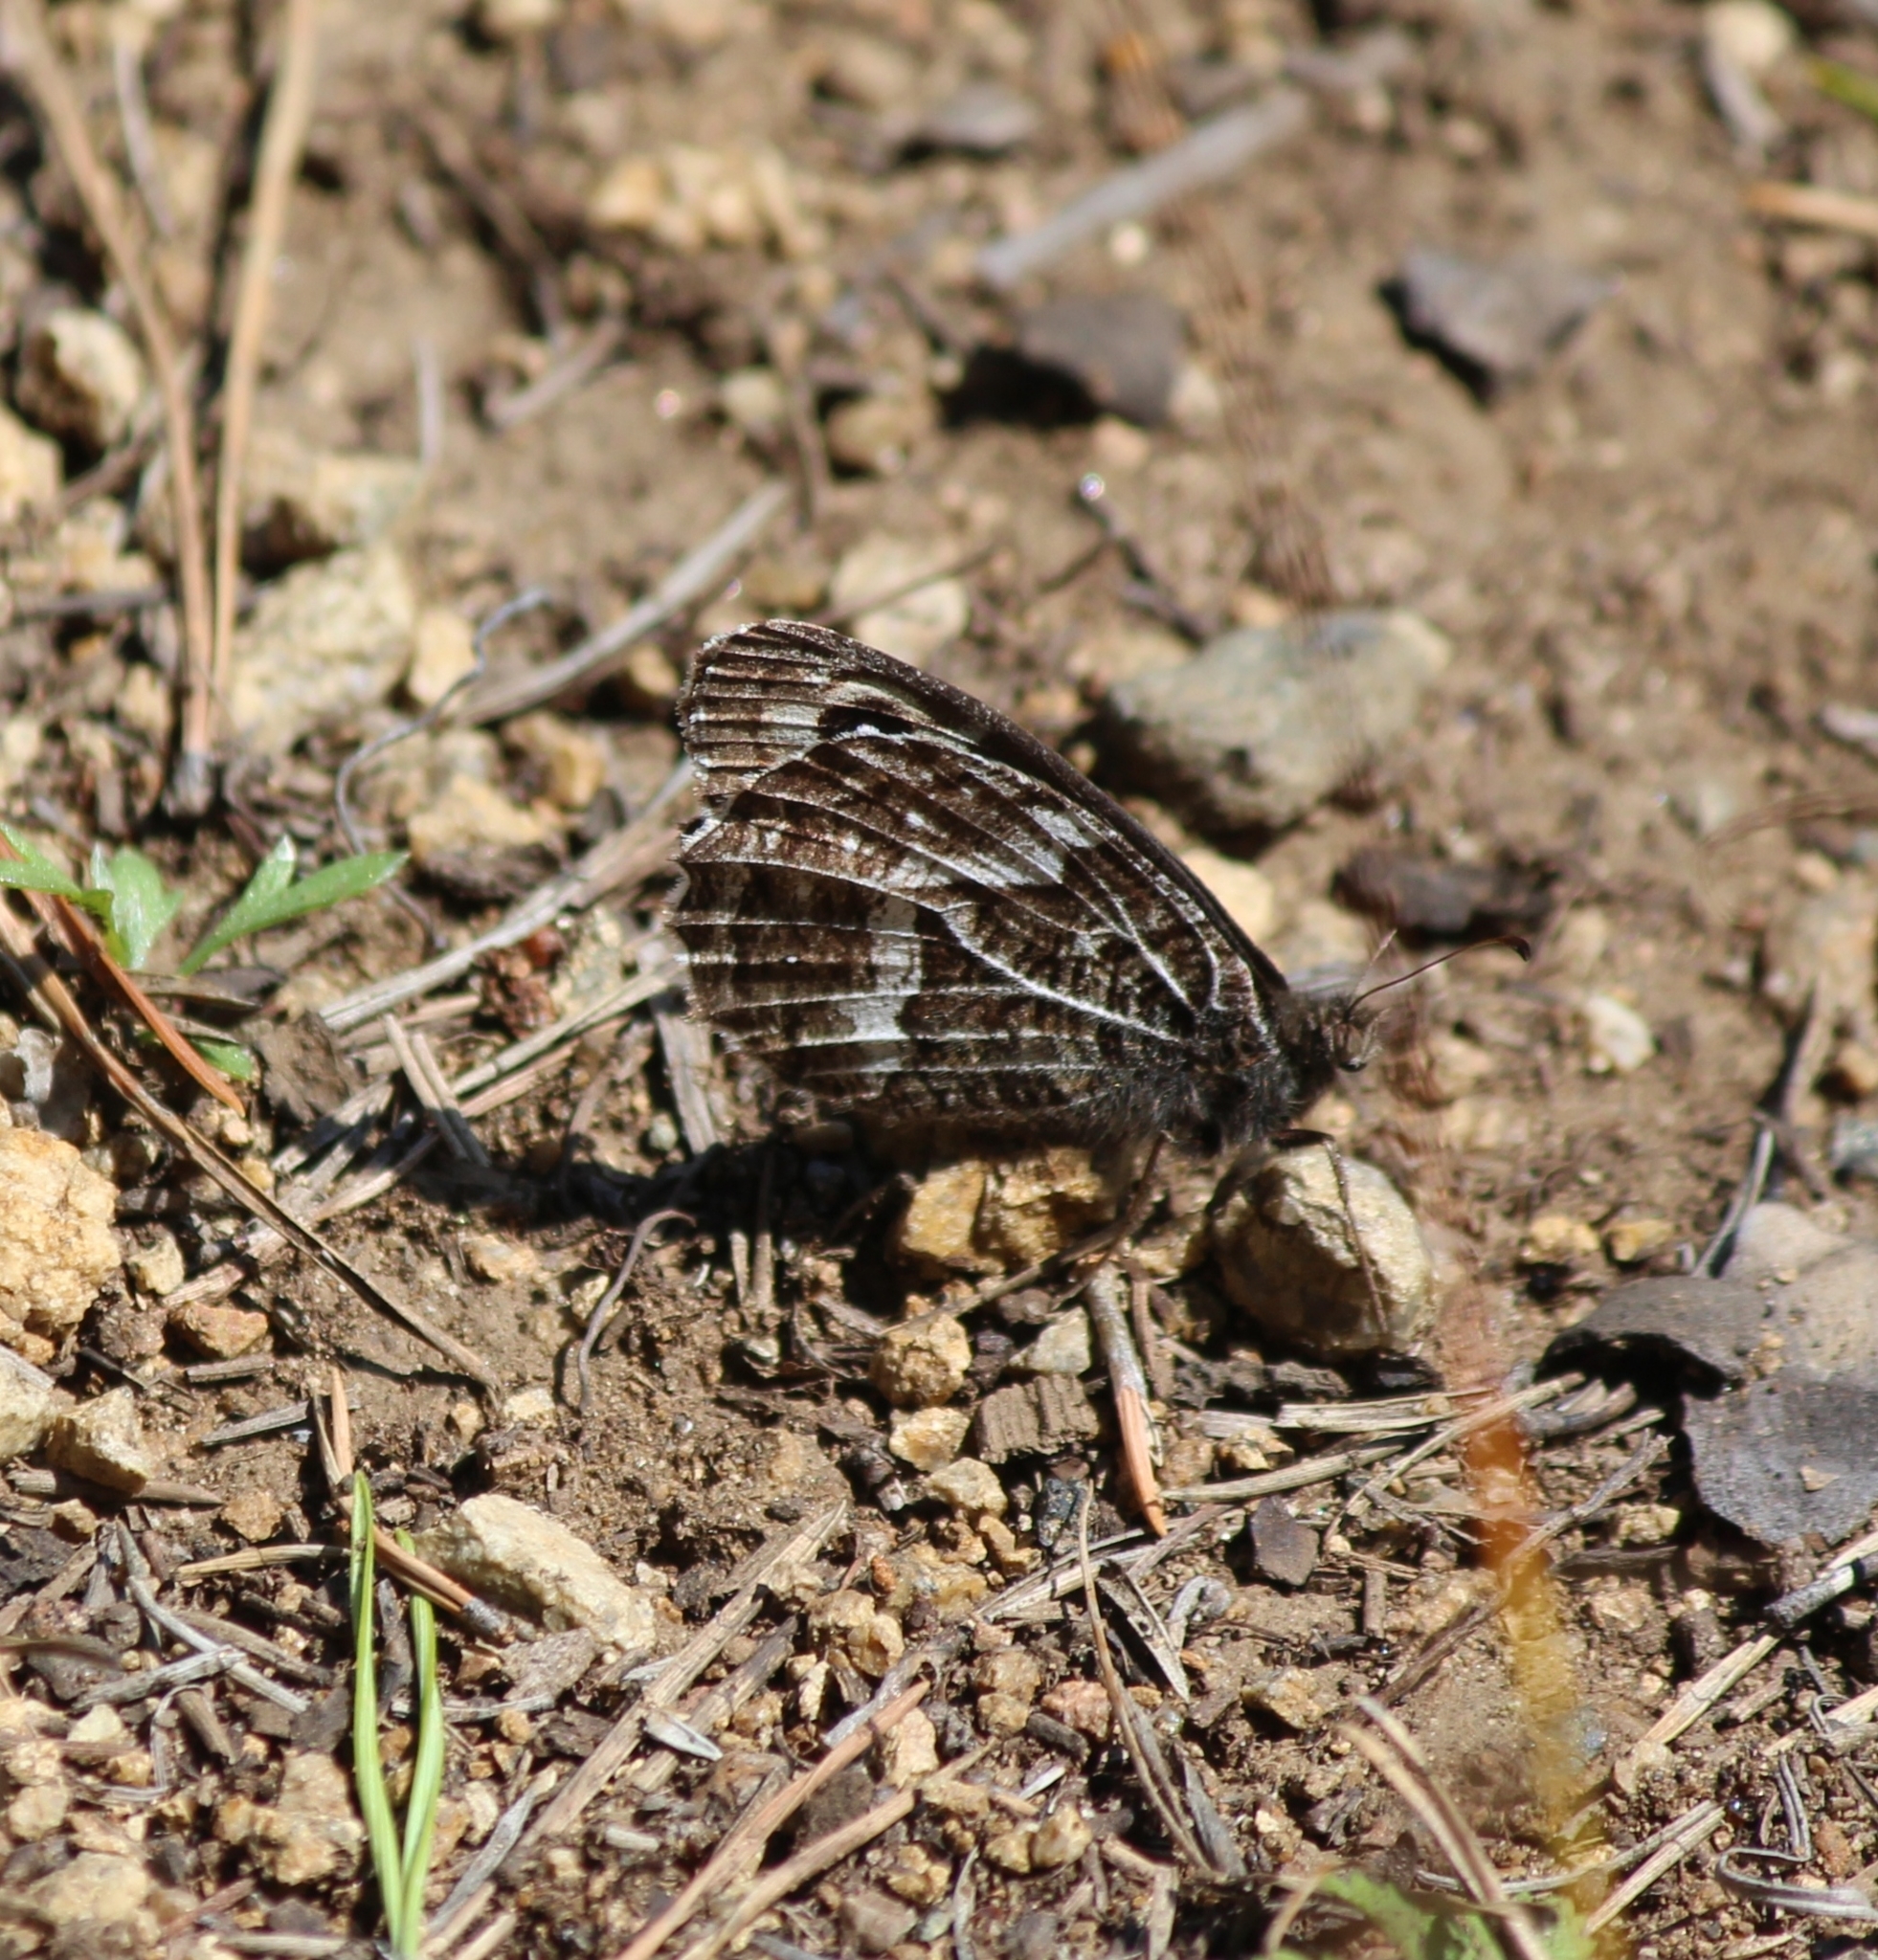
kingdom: Animalia
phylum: Arthropoda
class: Insecta
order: Lepidoptera
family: Nymphalidae
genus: Hipparchia
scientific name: Hipparchia autonoe
